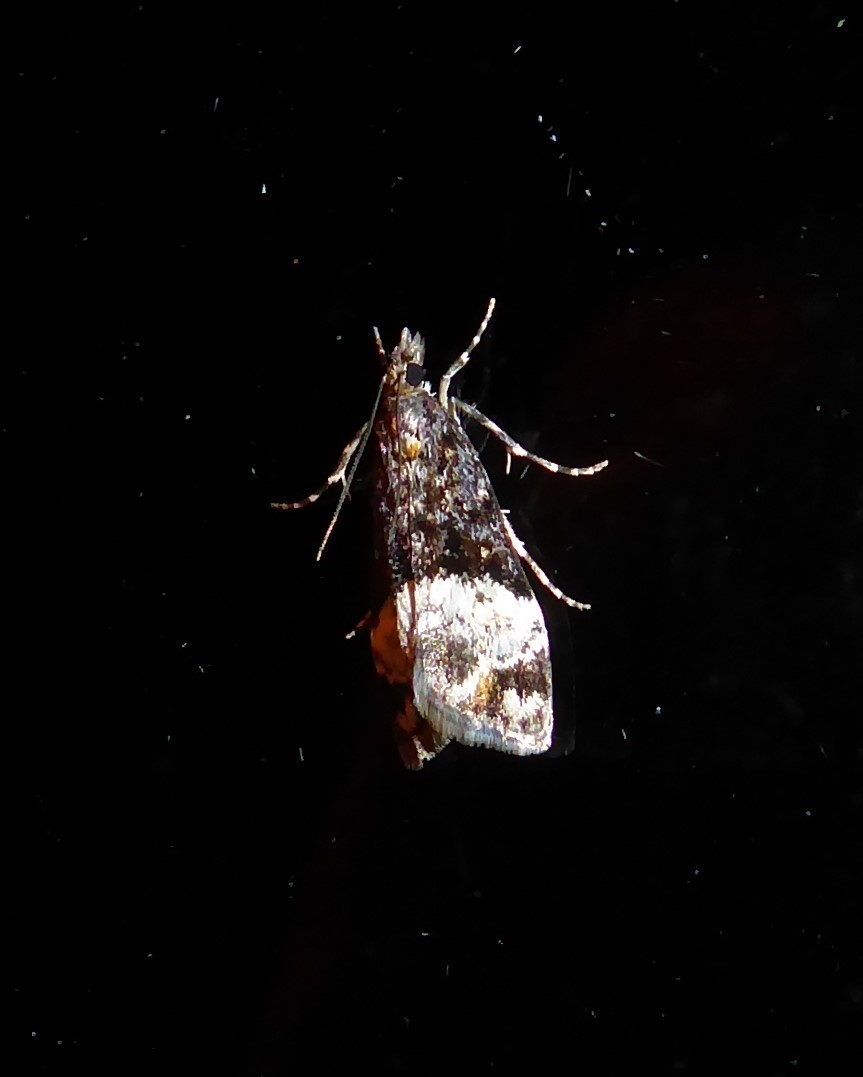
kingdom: Animalia
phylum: Arthropoda
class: Insecta
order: Lepidoptera
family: Crambidae
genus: Scoparia
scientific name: Scoparia minusculalis
